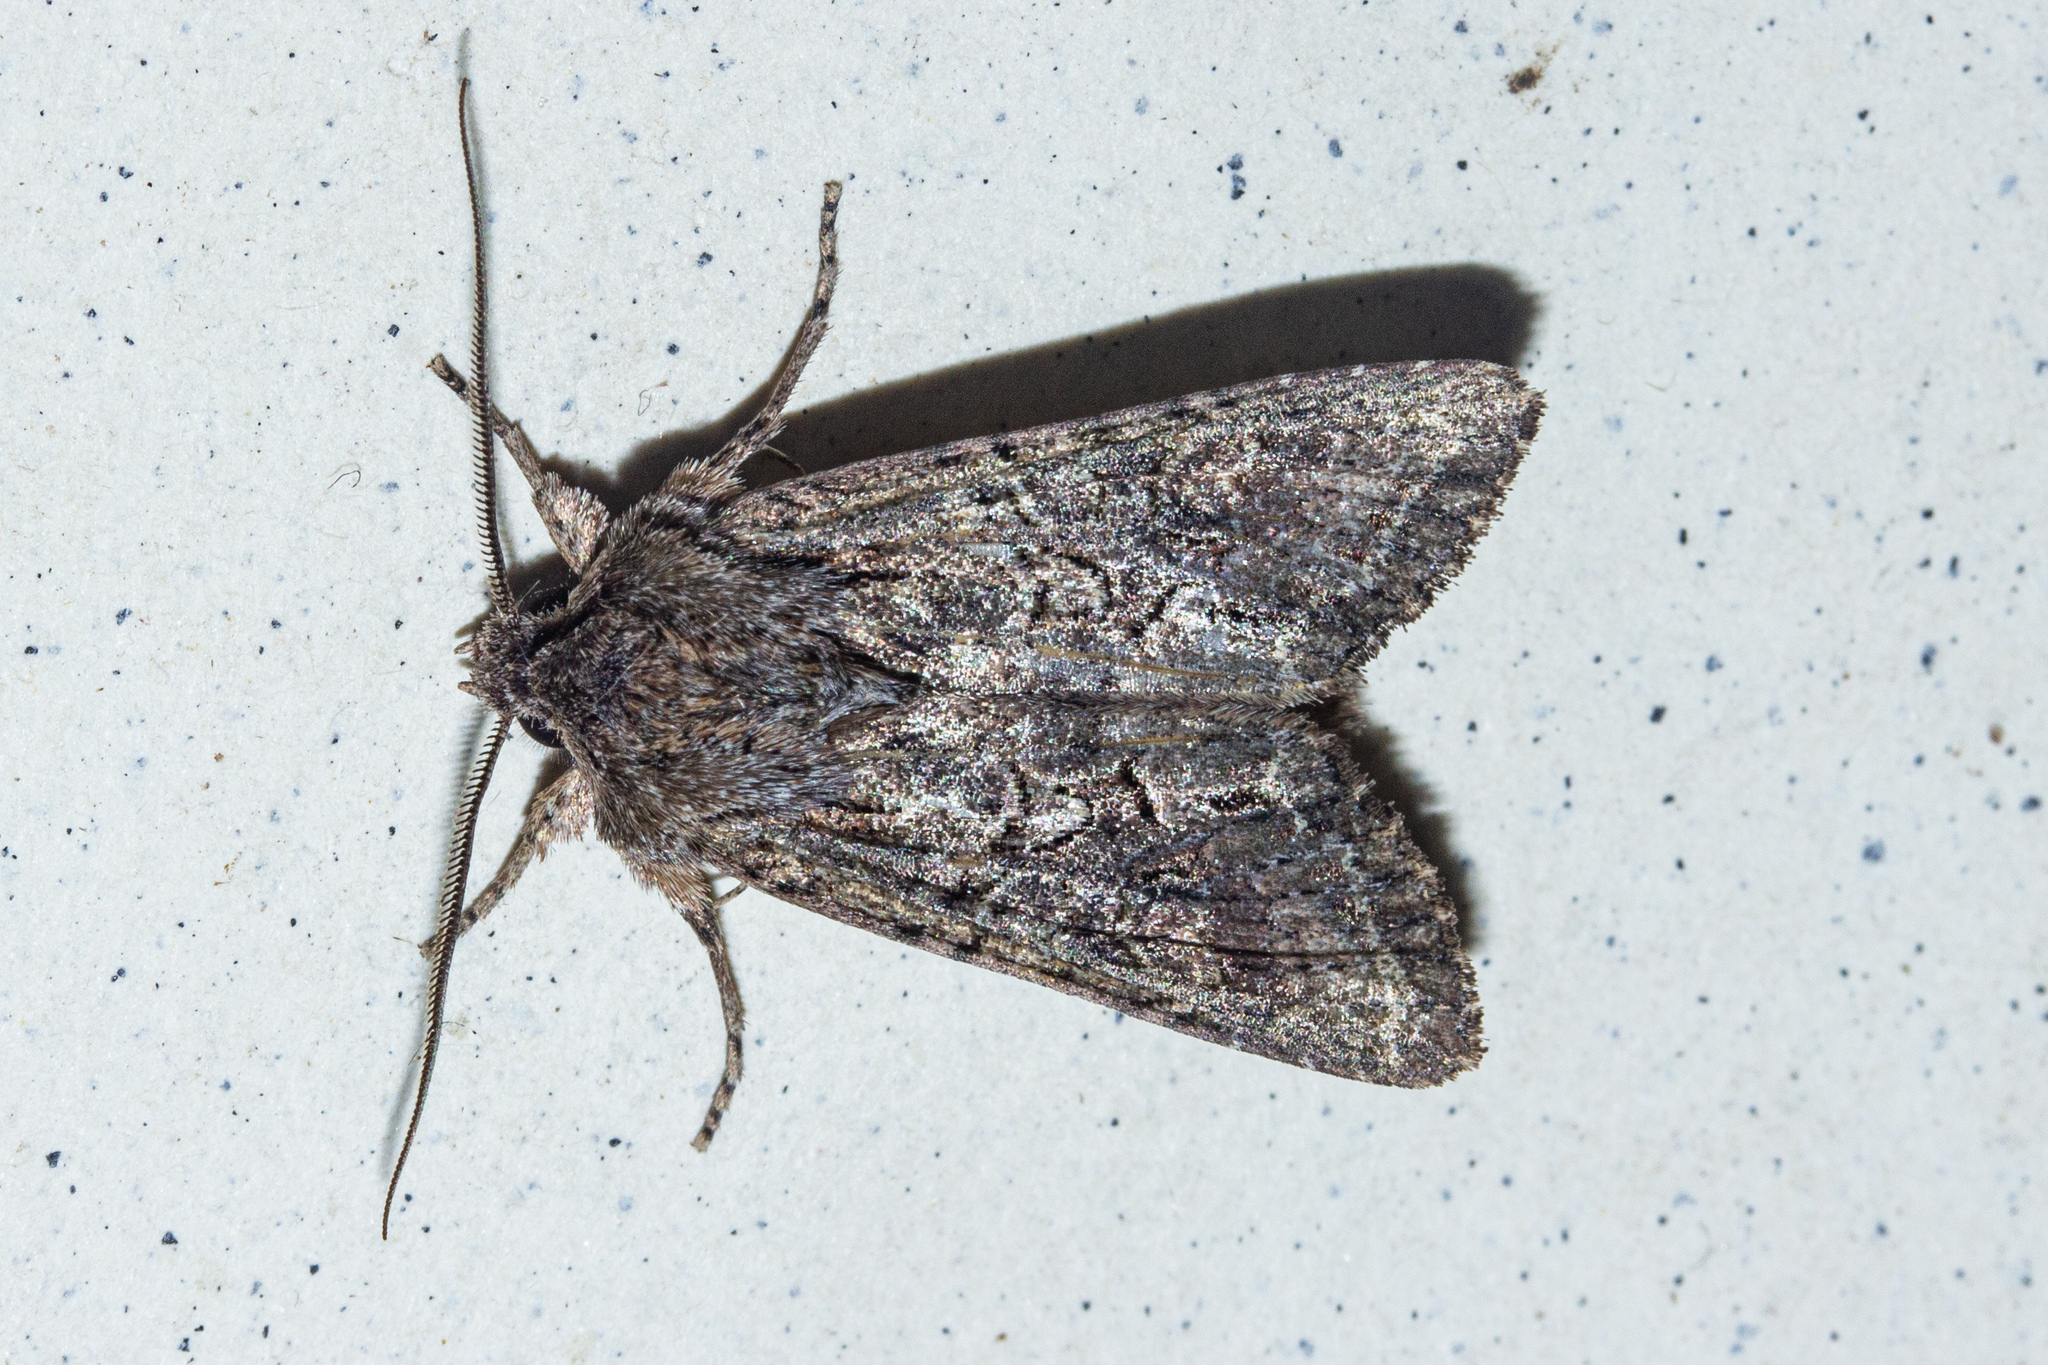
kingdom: Animalia
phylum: Arthropoda
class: Insecta
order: Lepidoptera
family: Noctuidae
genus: Ichneutica
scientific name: Ichneutica mutans
